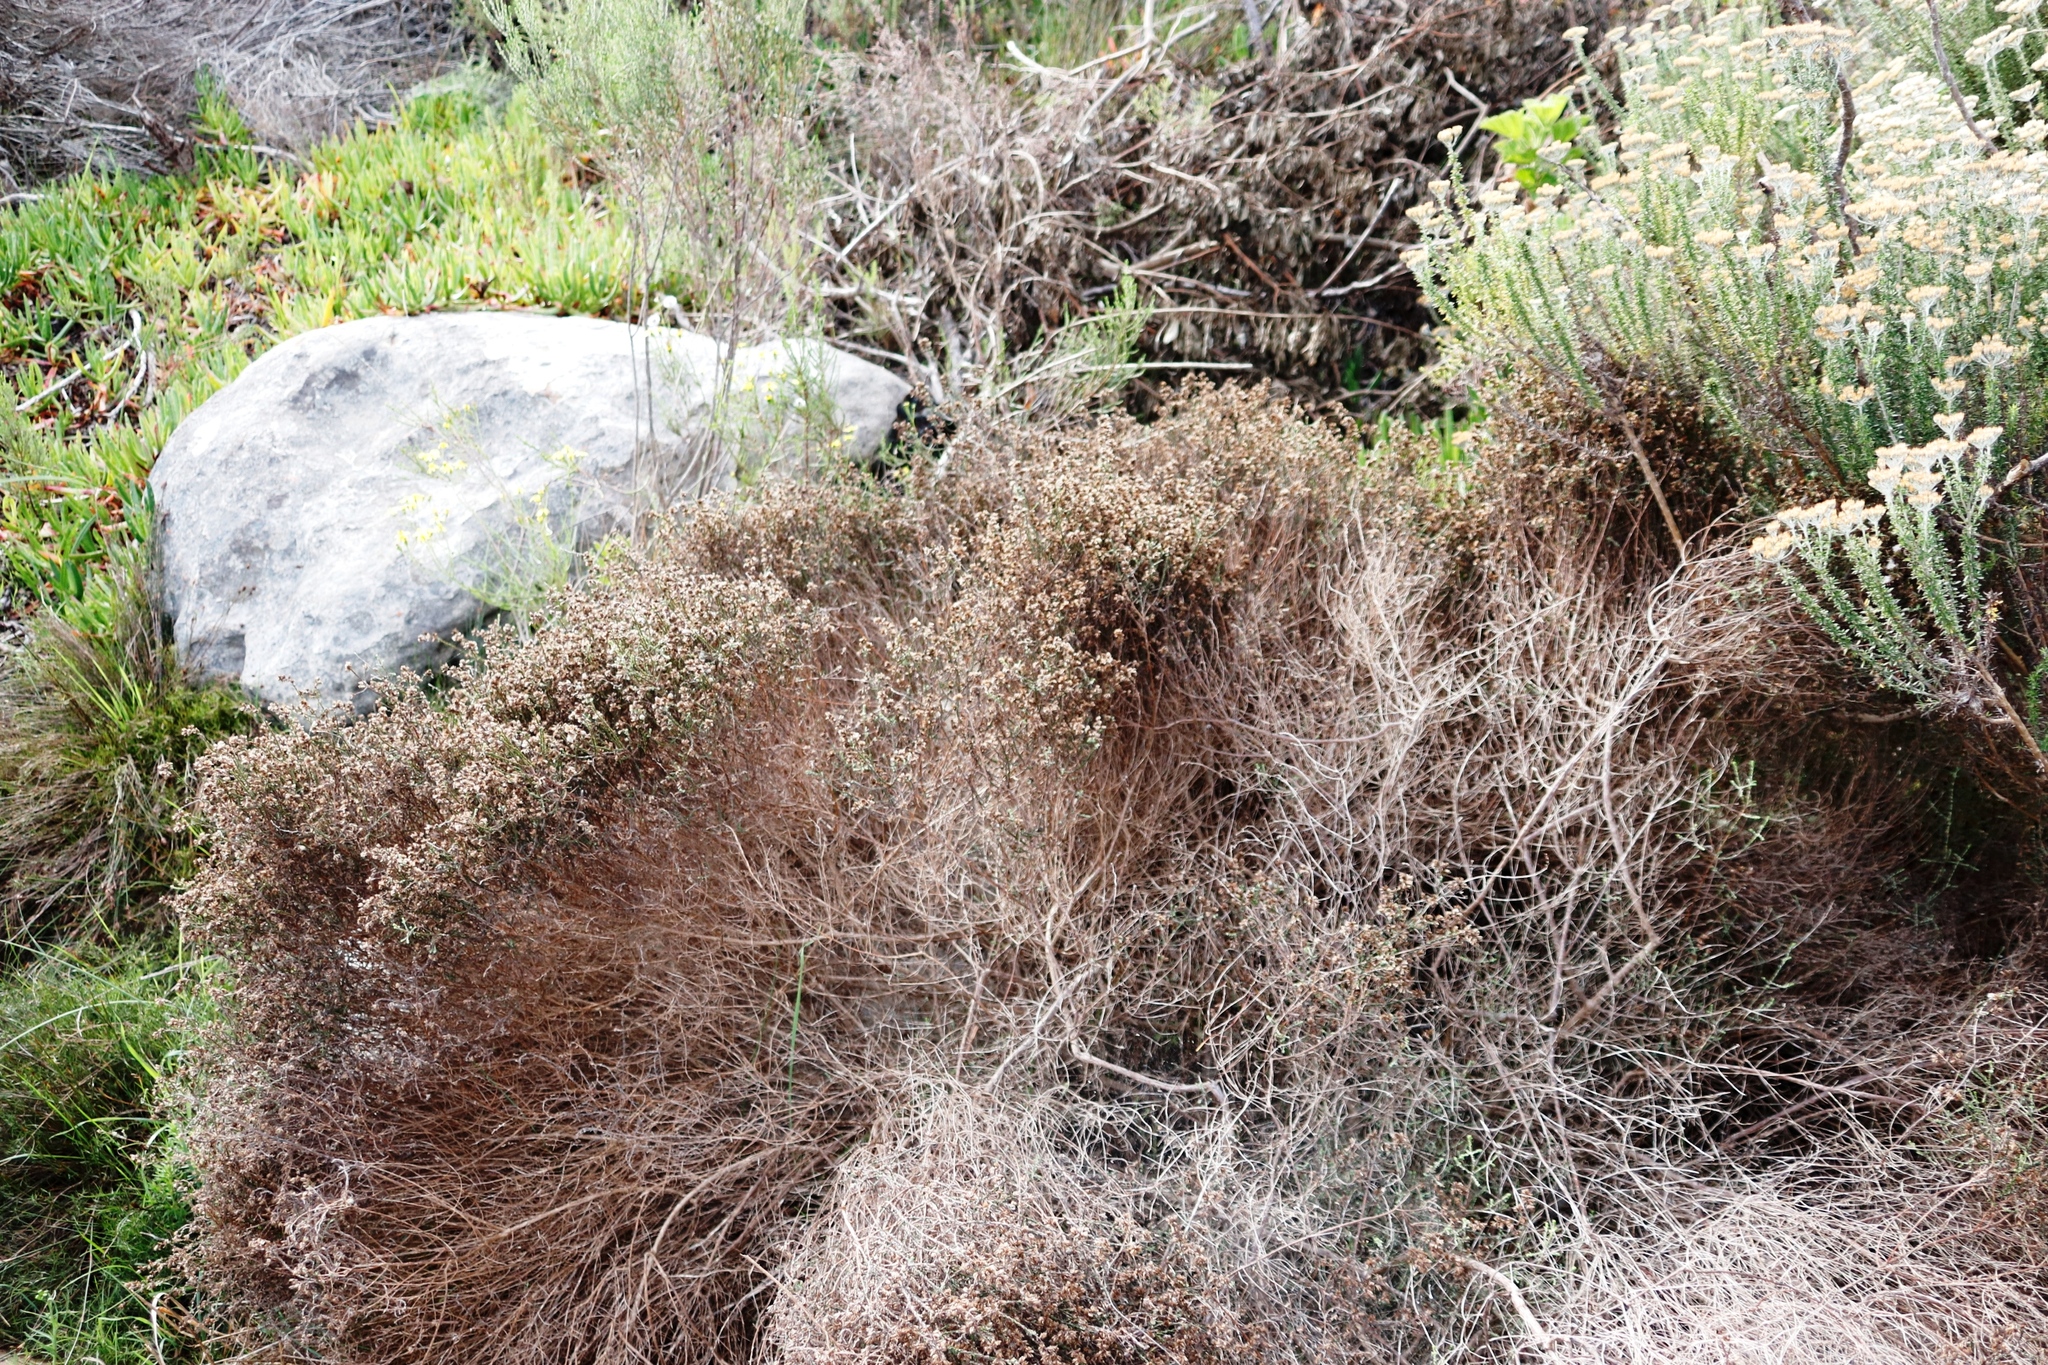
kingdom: Plantae
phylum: Tracheophyta
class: Magnoliopsida
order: Asterales
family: Asteraceae
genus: Myrovernix
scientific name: Myrovernix scaber
